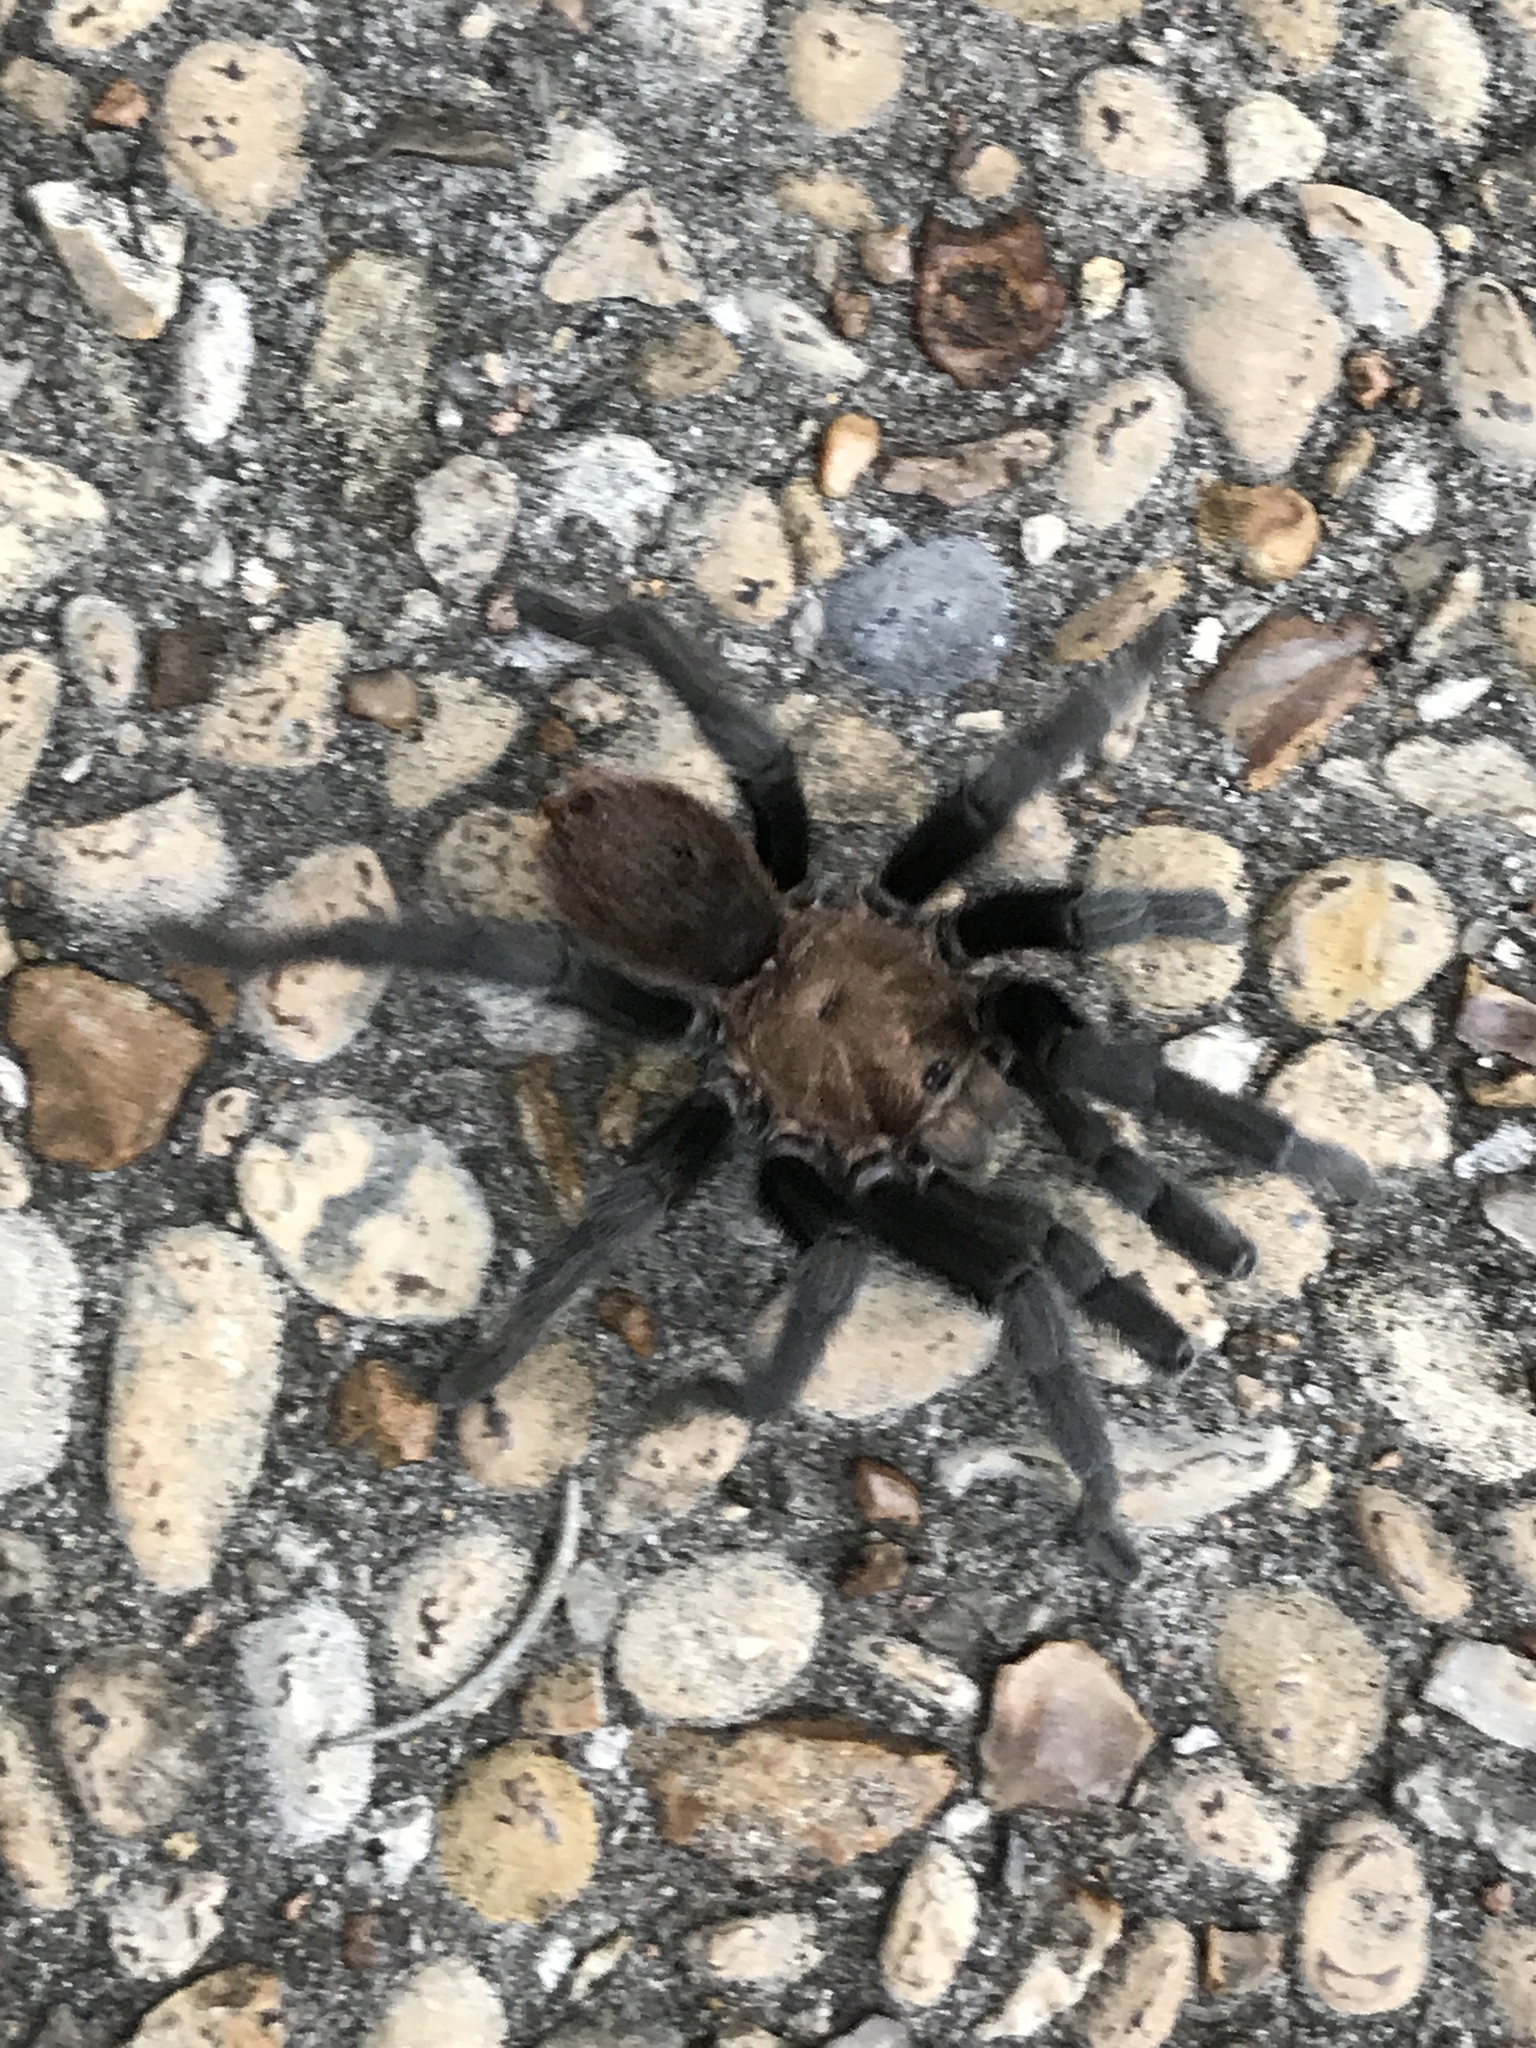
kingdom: Animalia
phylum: Arthropoda
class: Arachnida
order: Araneae
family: Theraphosidae
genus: Aphonopelma
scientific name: Aphonopelma hentzi
